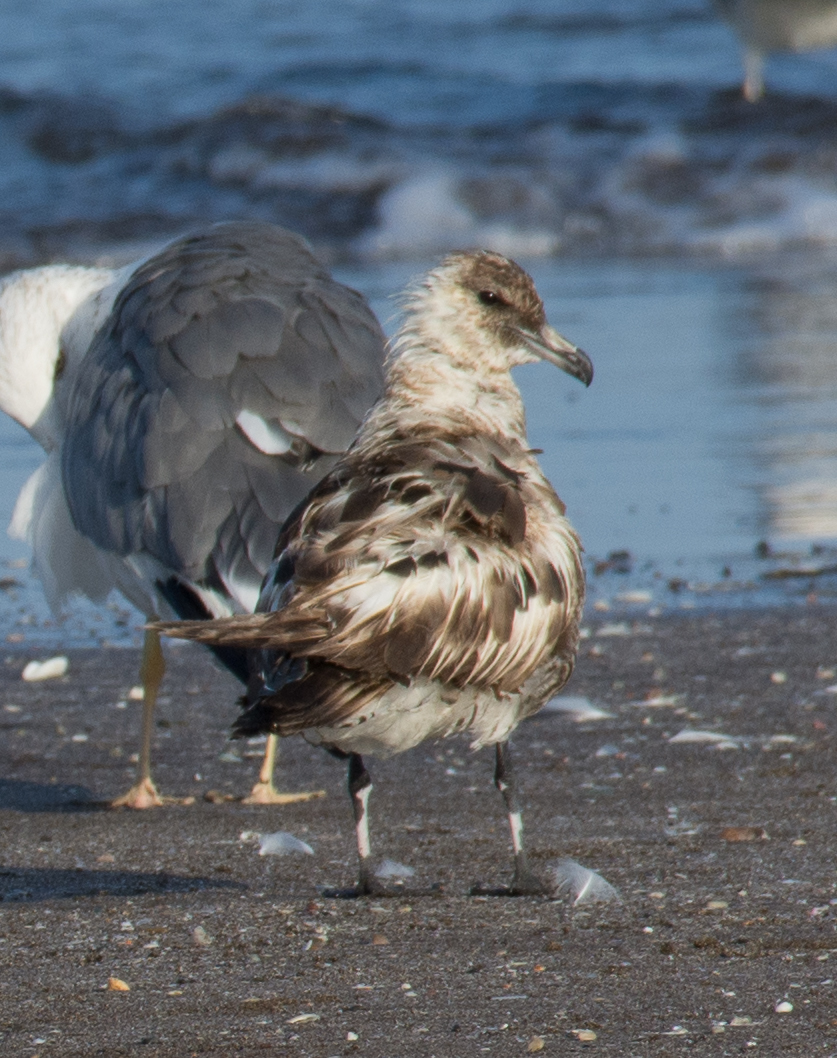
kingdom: Animalia
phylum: Chordata
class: Aves
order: Charadriiformes
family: Stercorariidae
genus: Stercorarius
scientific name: Stercorarius pomarinus
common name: Pomarine jaeger
